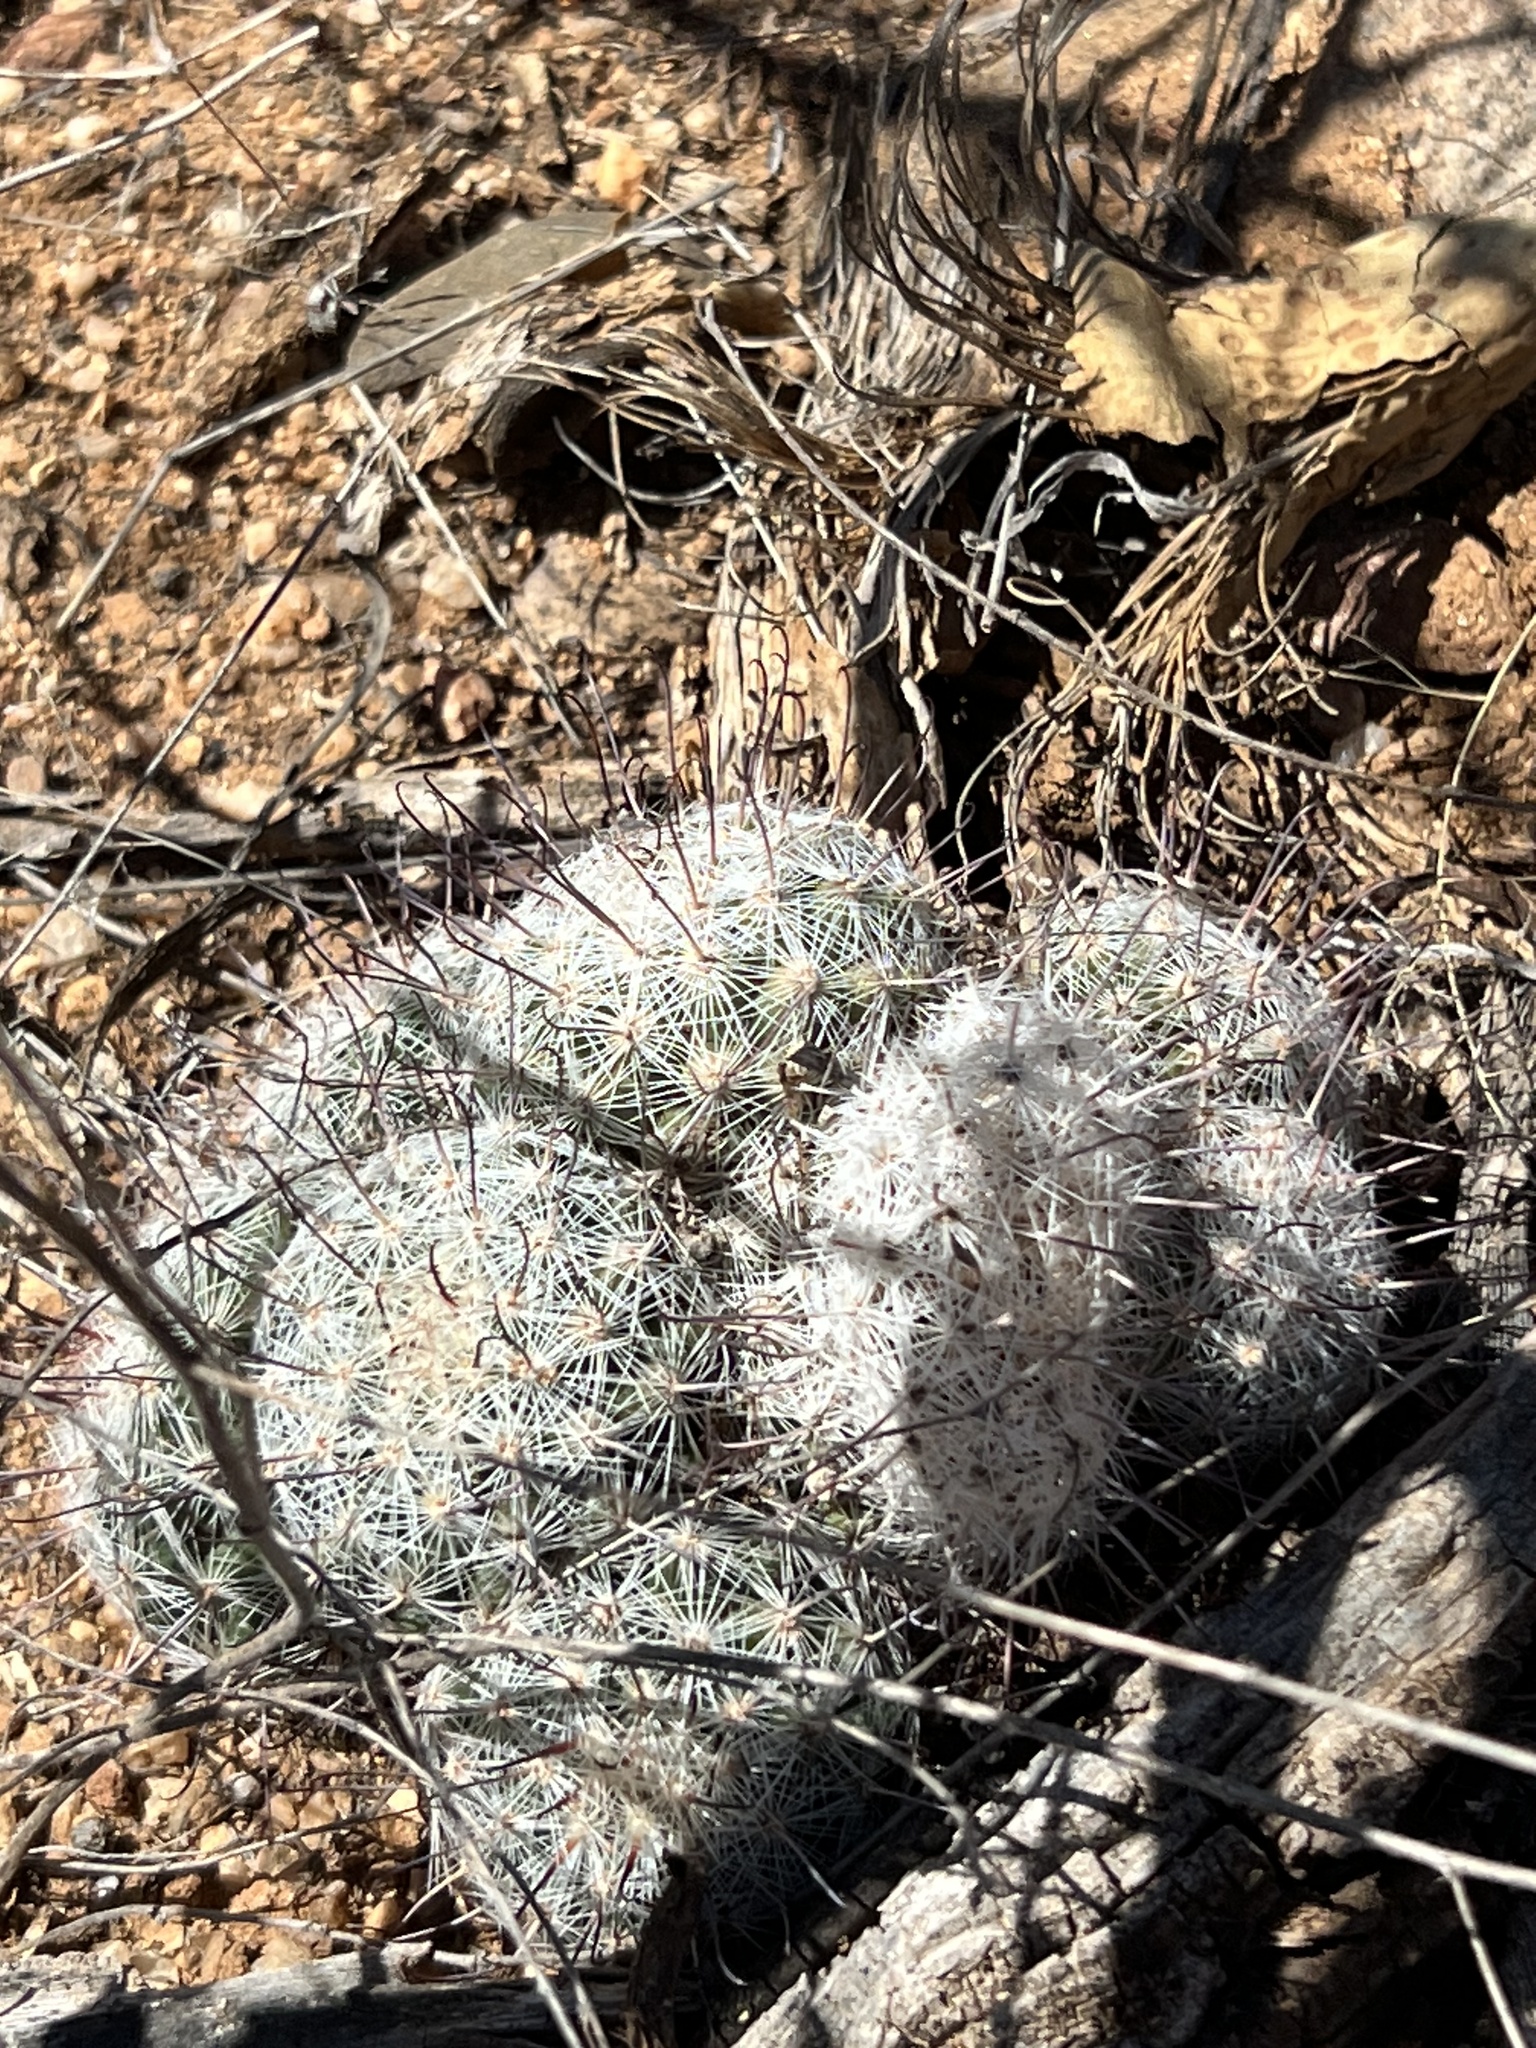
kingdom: Plantae
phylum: Tracheophyta
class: Magnoliopsida
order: Caryophyllales
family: Cactaceae
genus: Cochemiea
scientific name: Cochemiea grahamii
